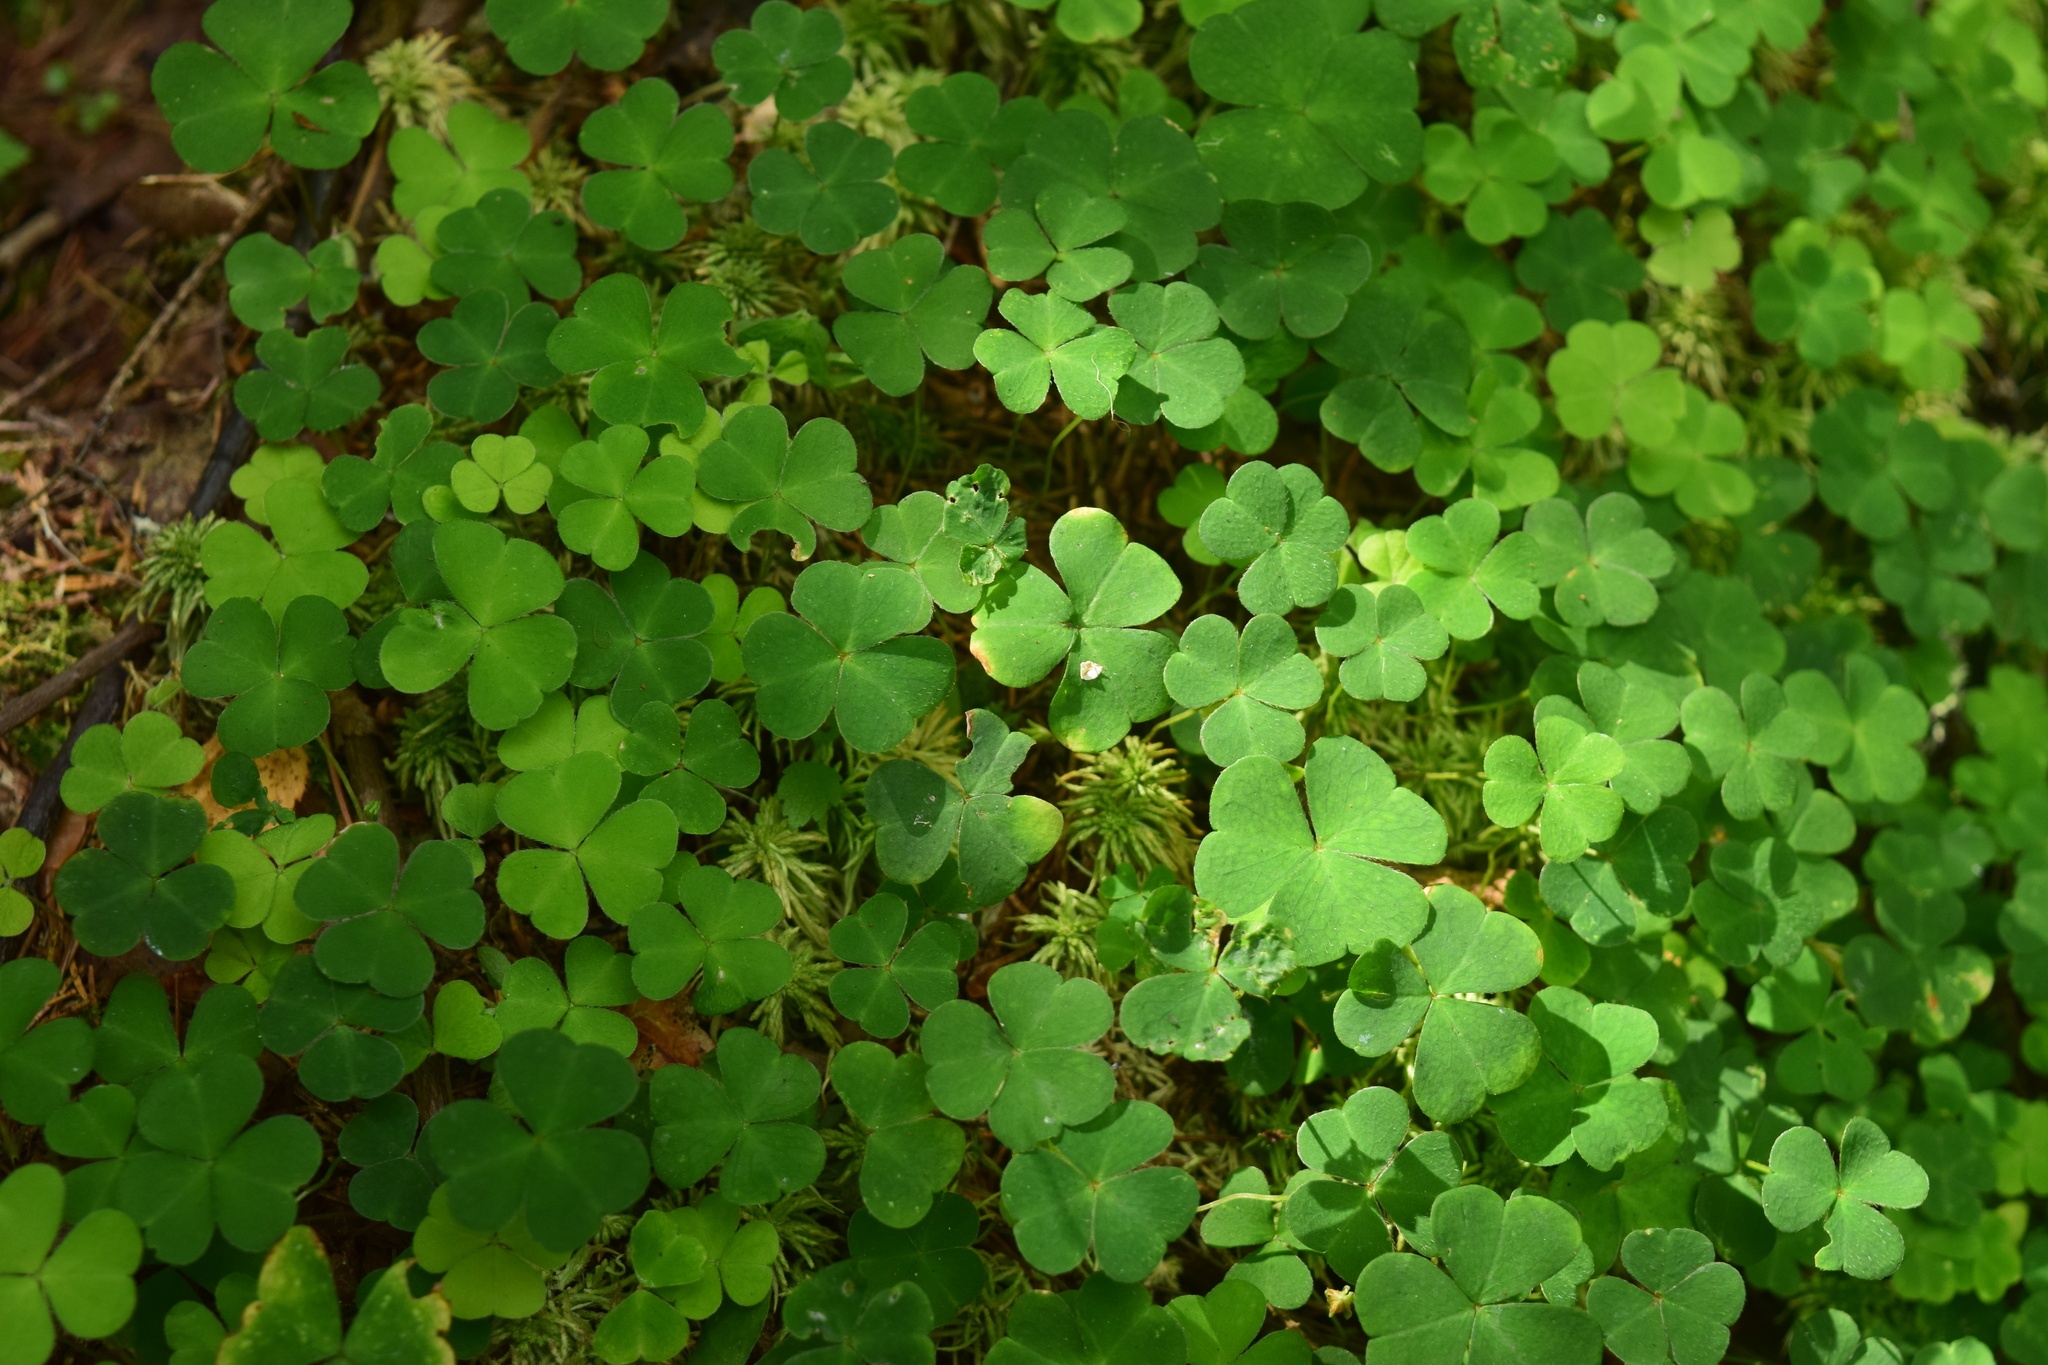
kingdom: Plantae
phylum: Tracheophyta
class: Magnoliopsida
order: Oxalidales
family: Oxalidaceae
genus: Oxalis
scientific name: Oxalis acetosella
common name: Wood-sorrel
